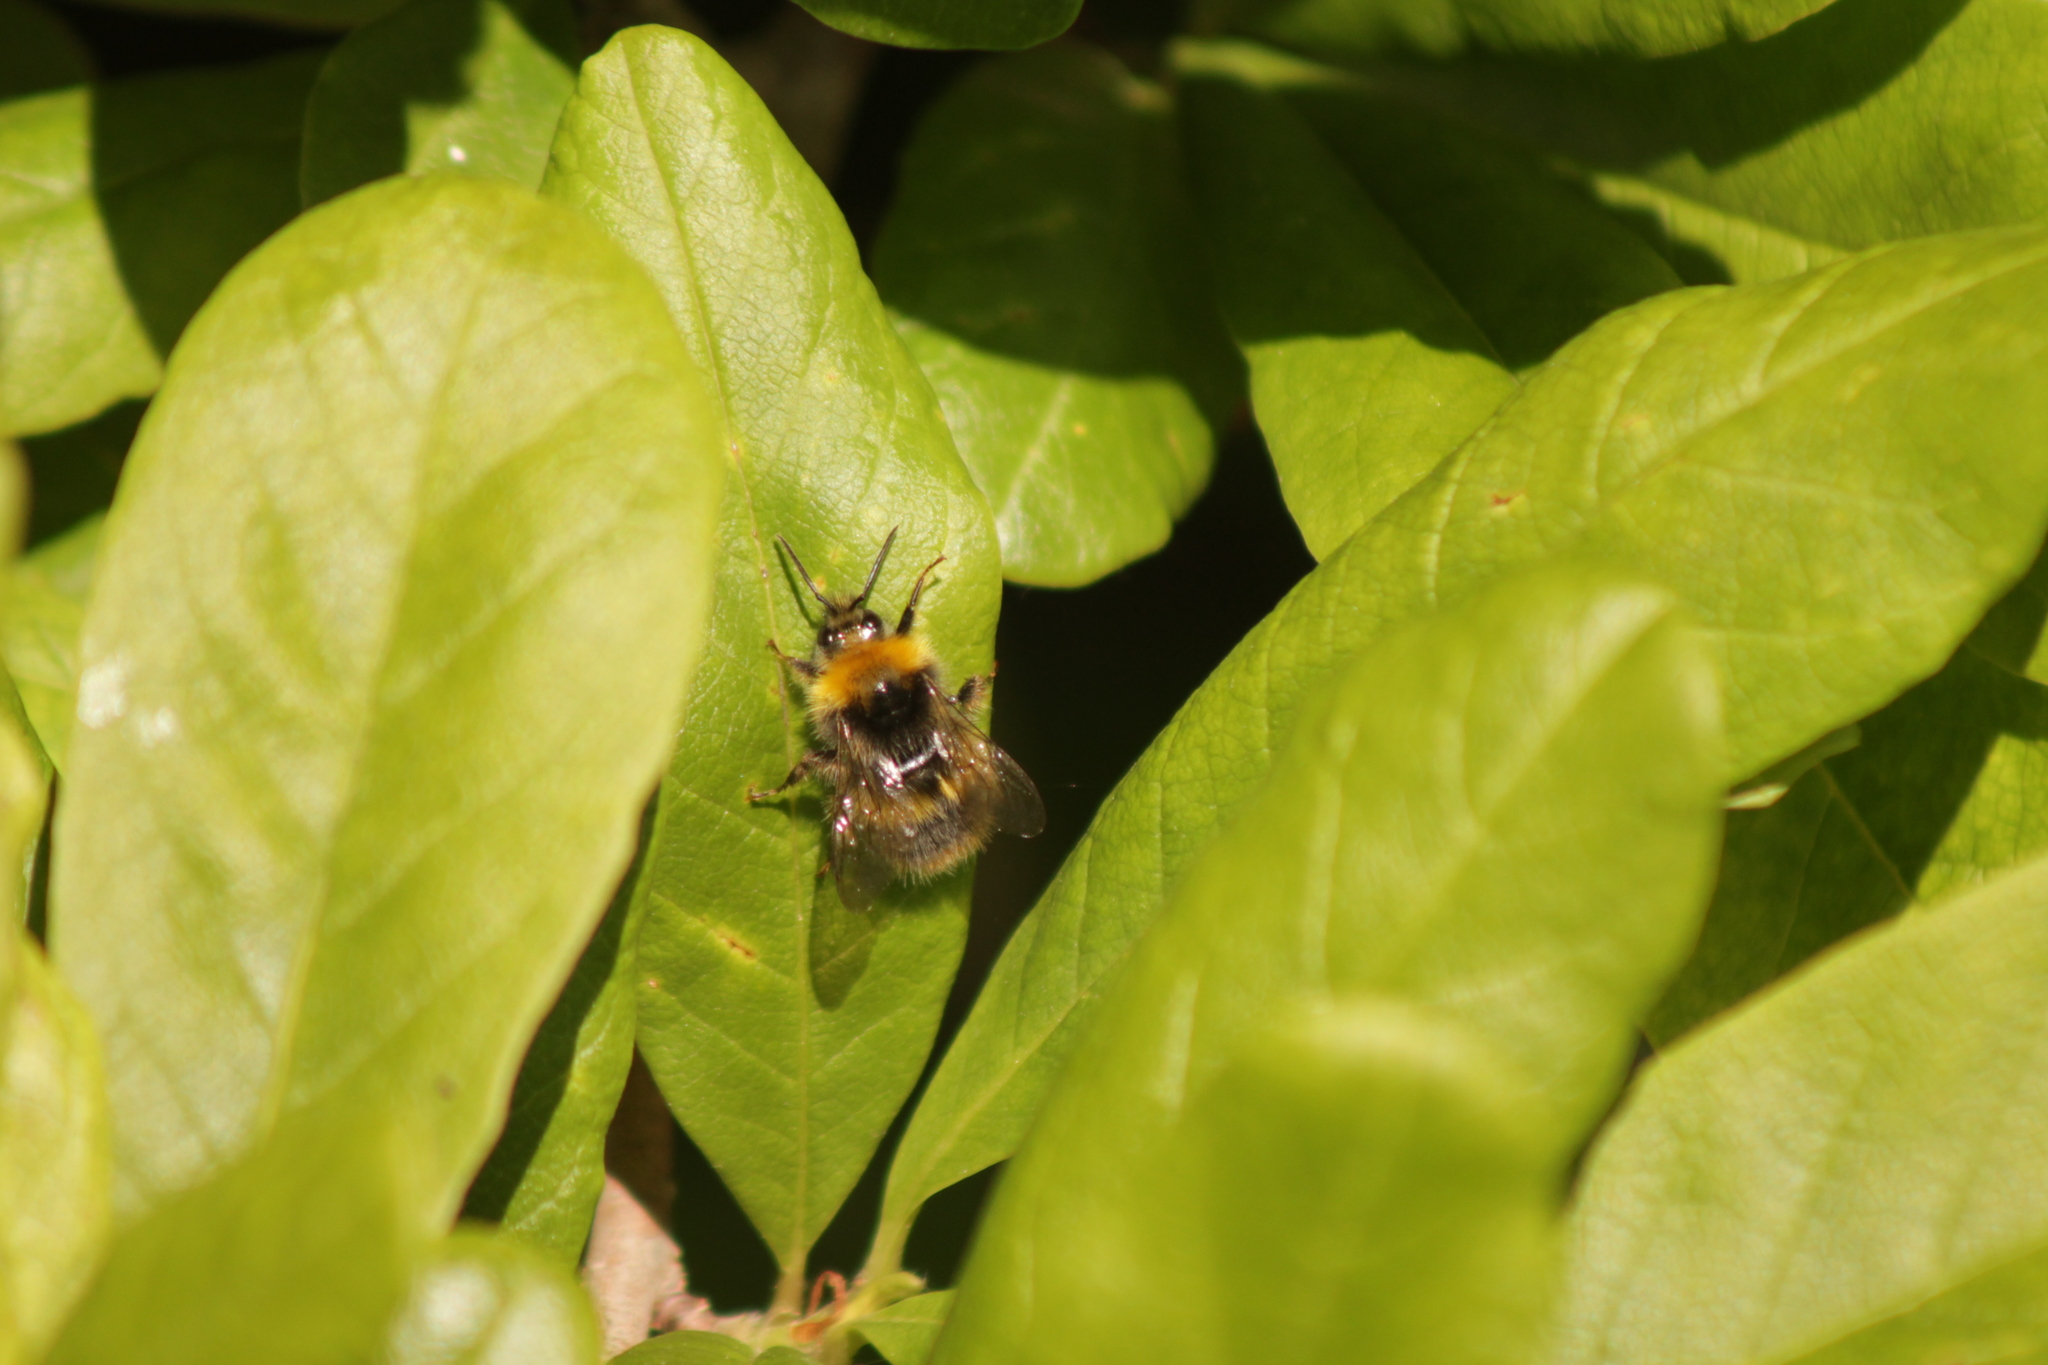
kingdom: Animalia
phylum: Arthropoda
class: Insecta
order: Hymenoptera
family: Apidae
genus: Bombus
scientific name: Bombus pratorum
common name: Early humble-bee
